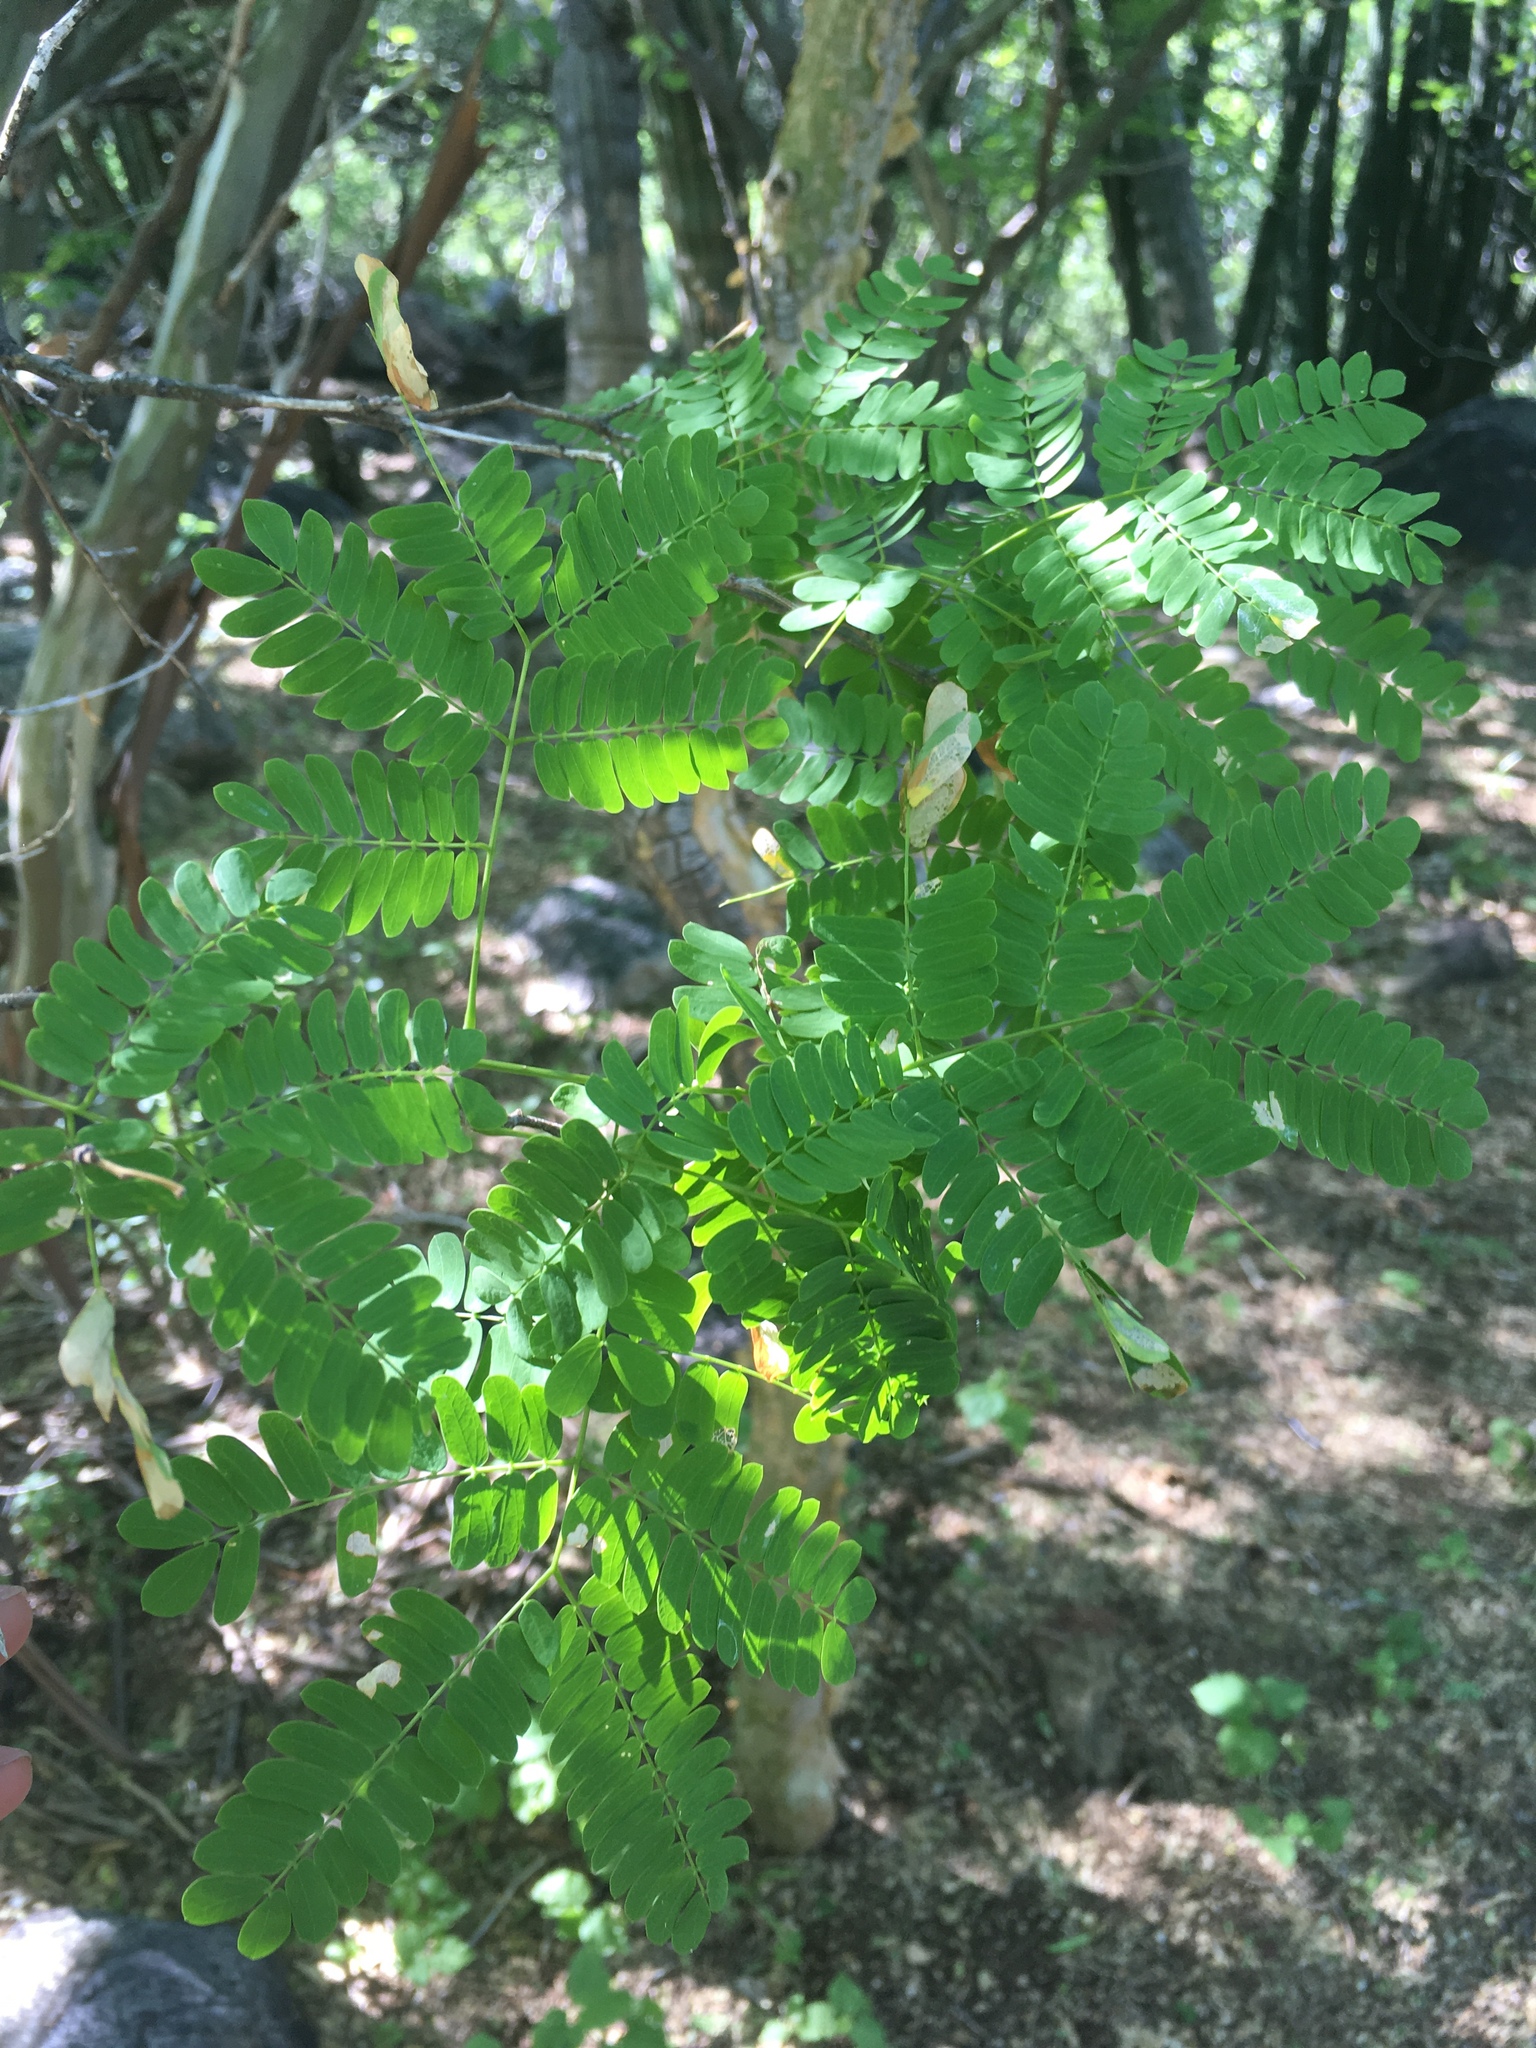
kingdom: Plantae
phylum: Tracheophyta
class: Magnoliopsida
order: Fabales
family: Fabaceae
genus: Chloroleucon
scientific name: Chloroleucon mangense
